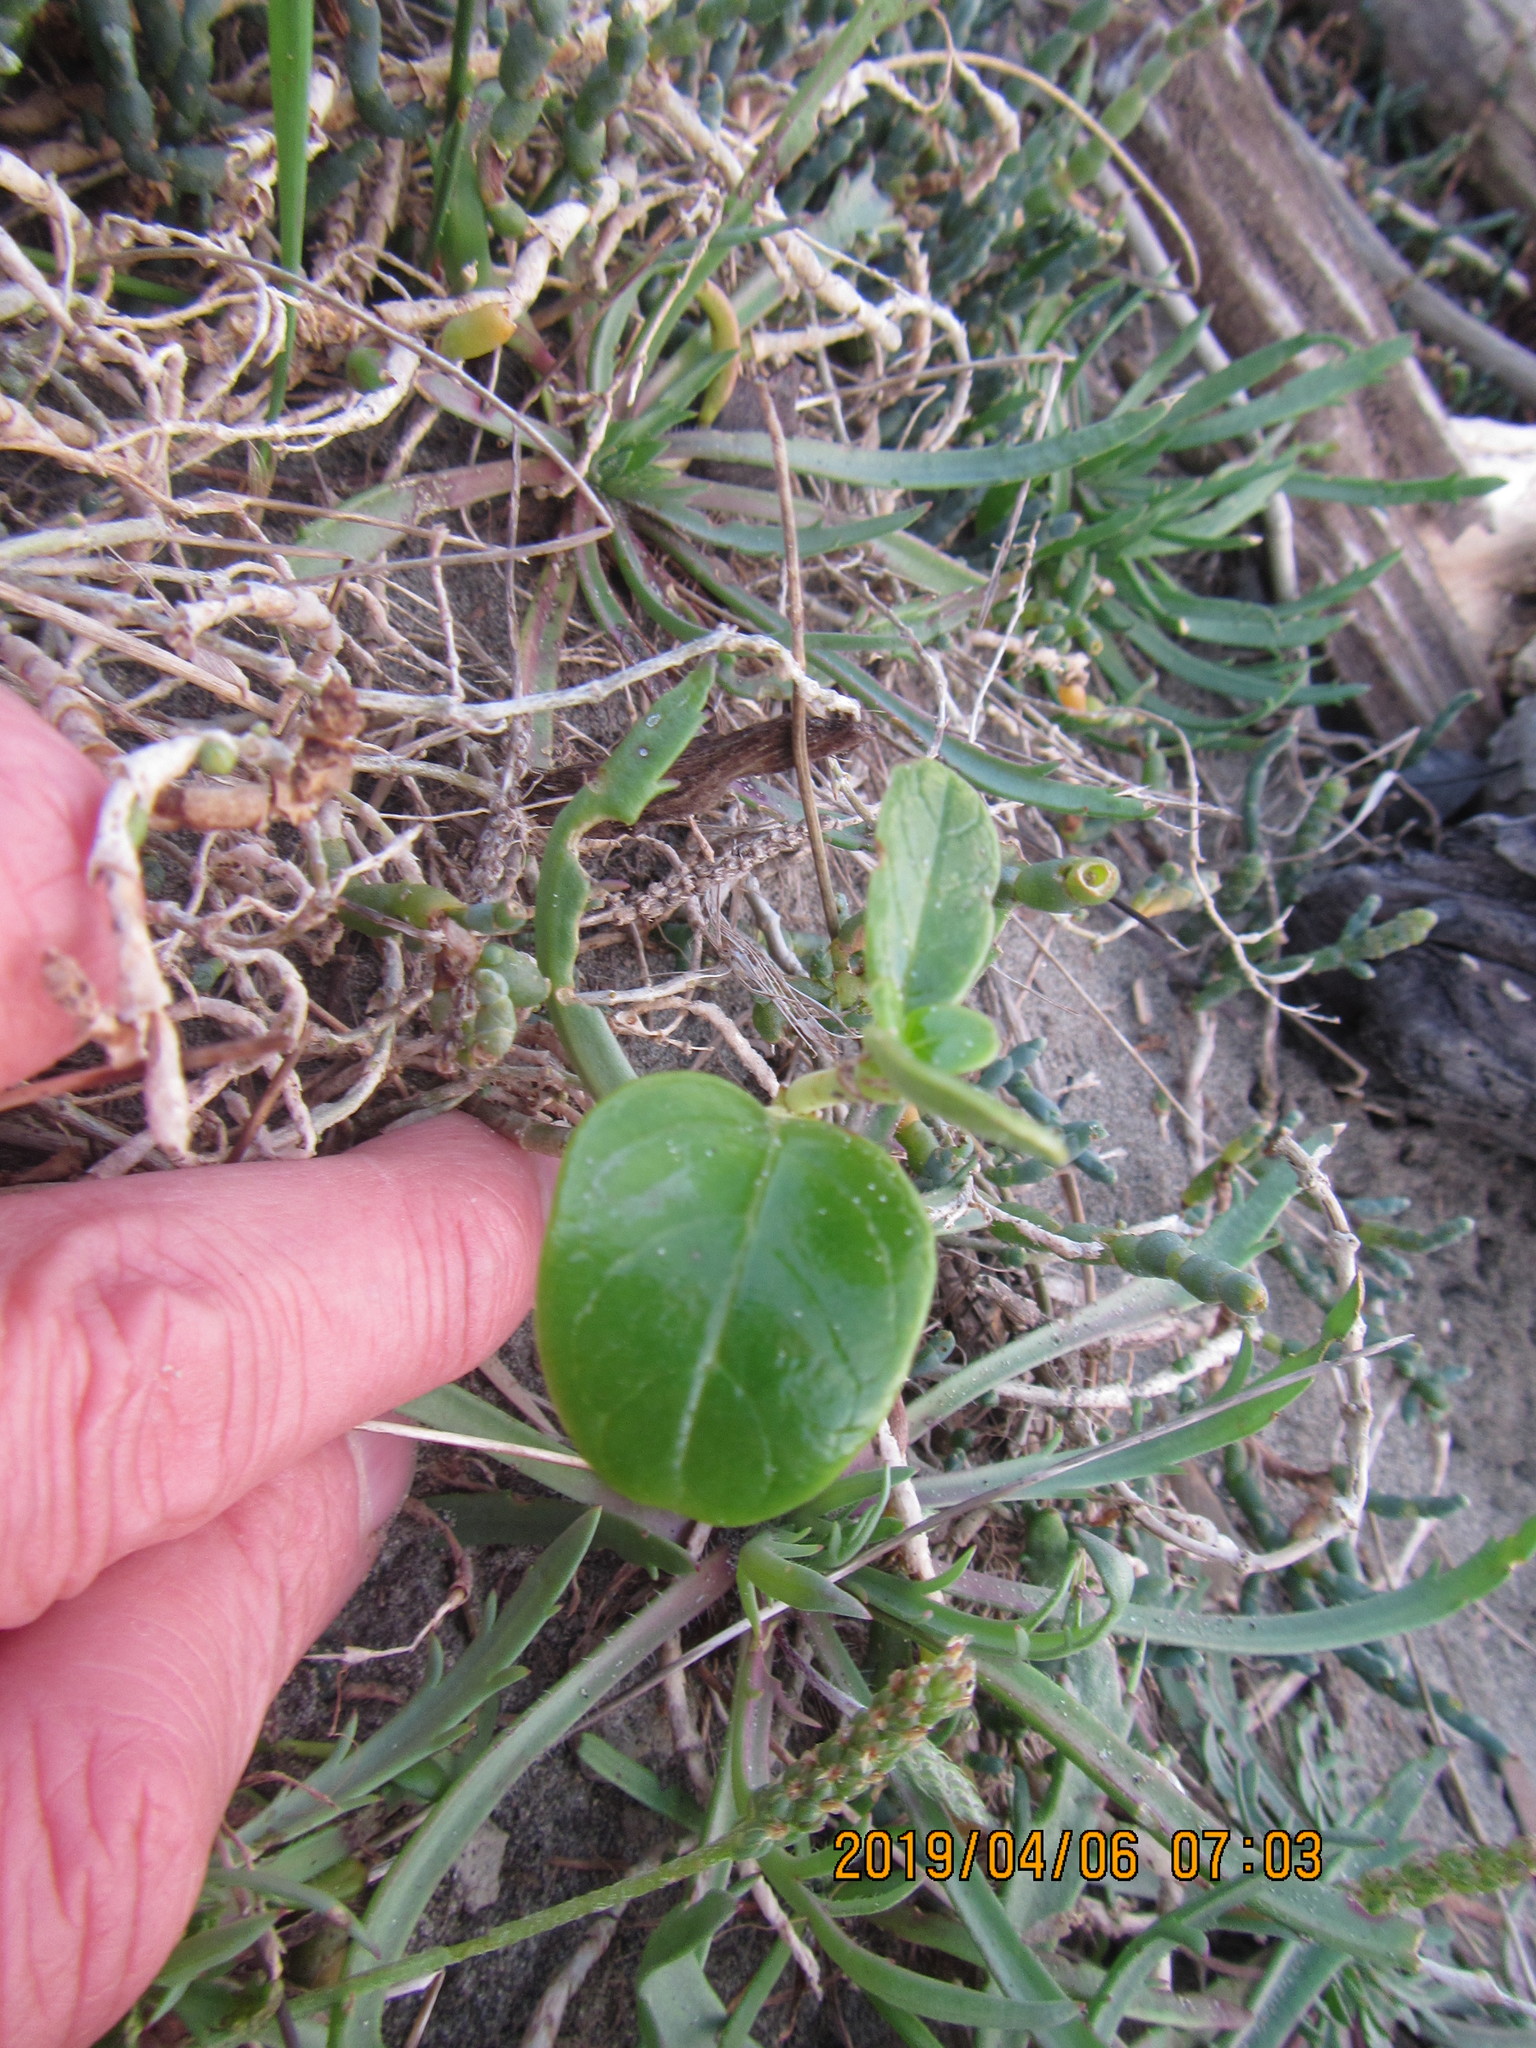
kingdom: Plantae
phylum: Tracheophyta
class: Magnoliopsida
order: Gentianales
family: Rubiaceae
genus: Coprosma
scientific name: Coprosma repens
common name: Tree bedstraw
